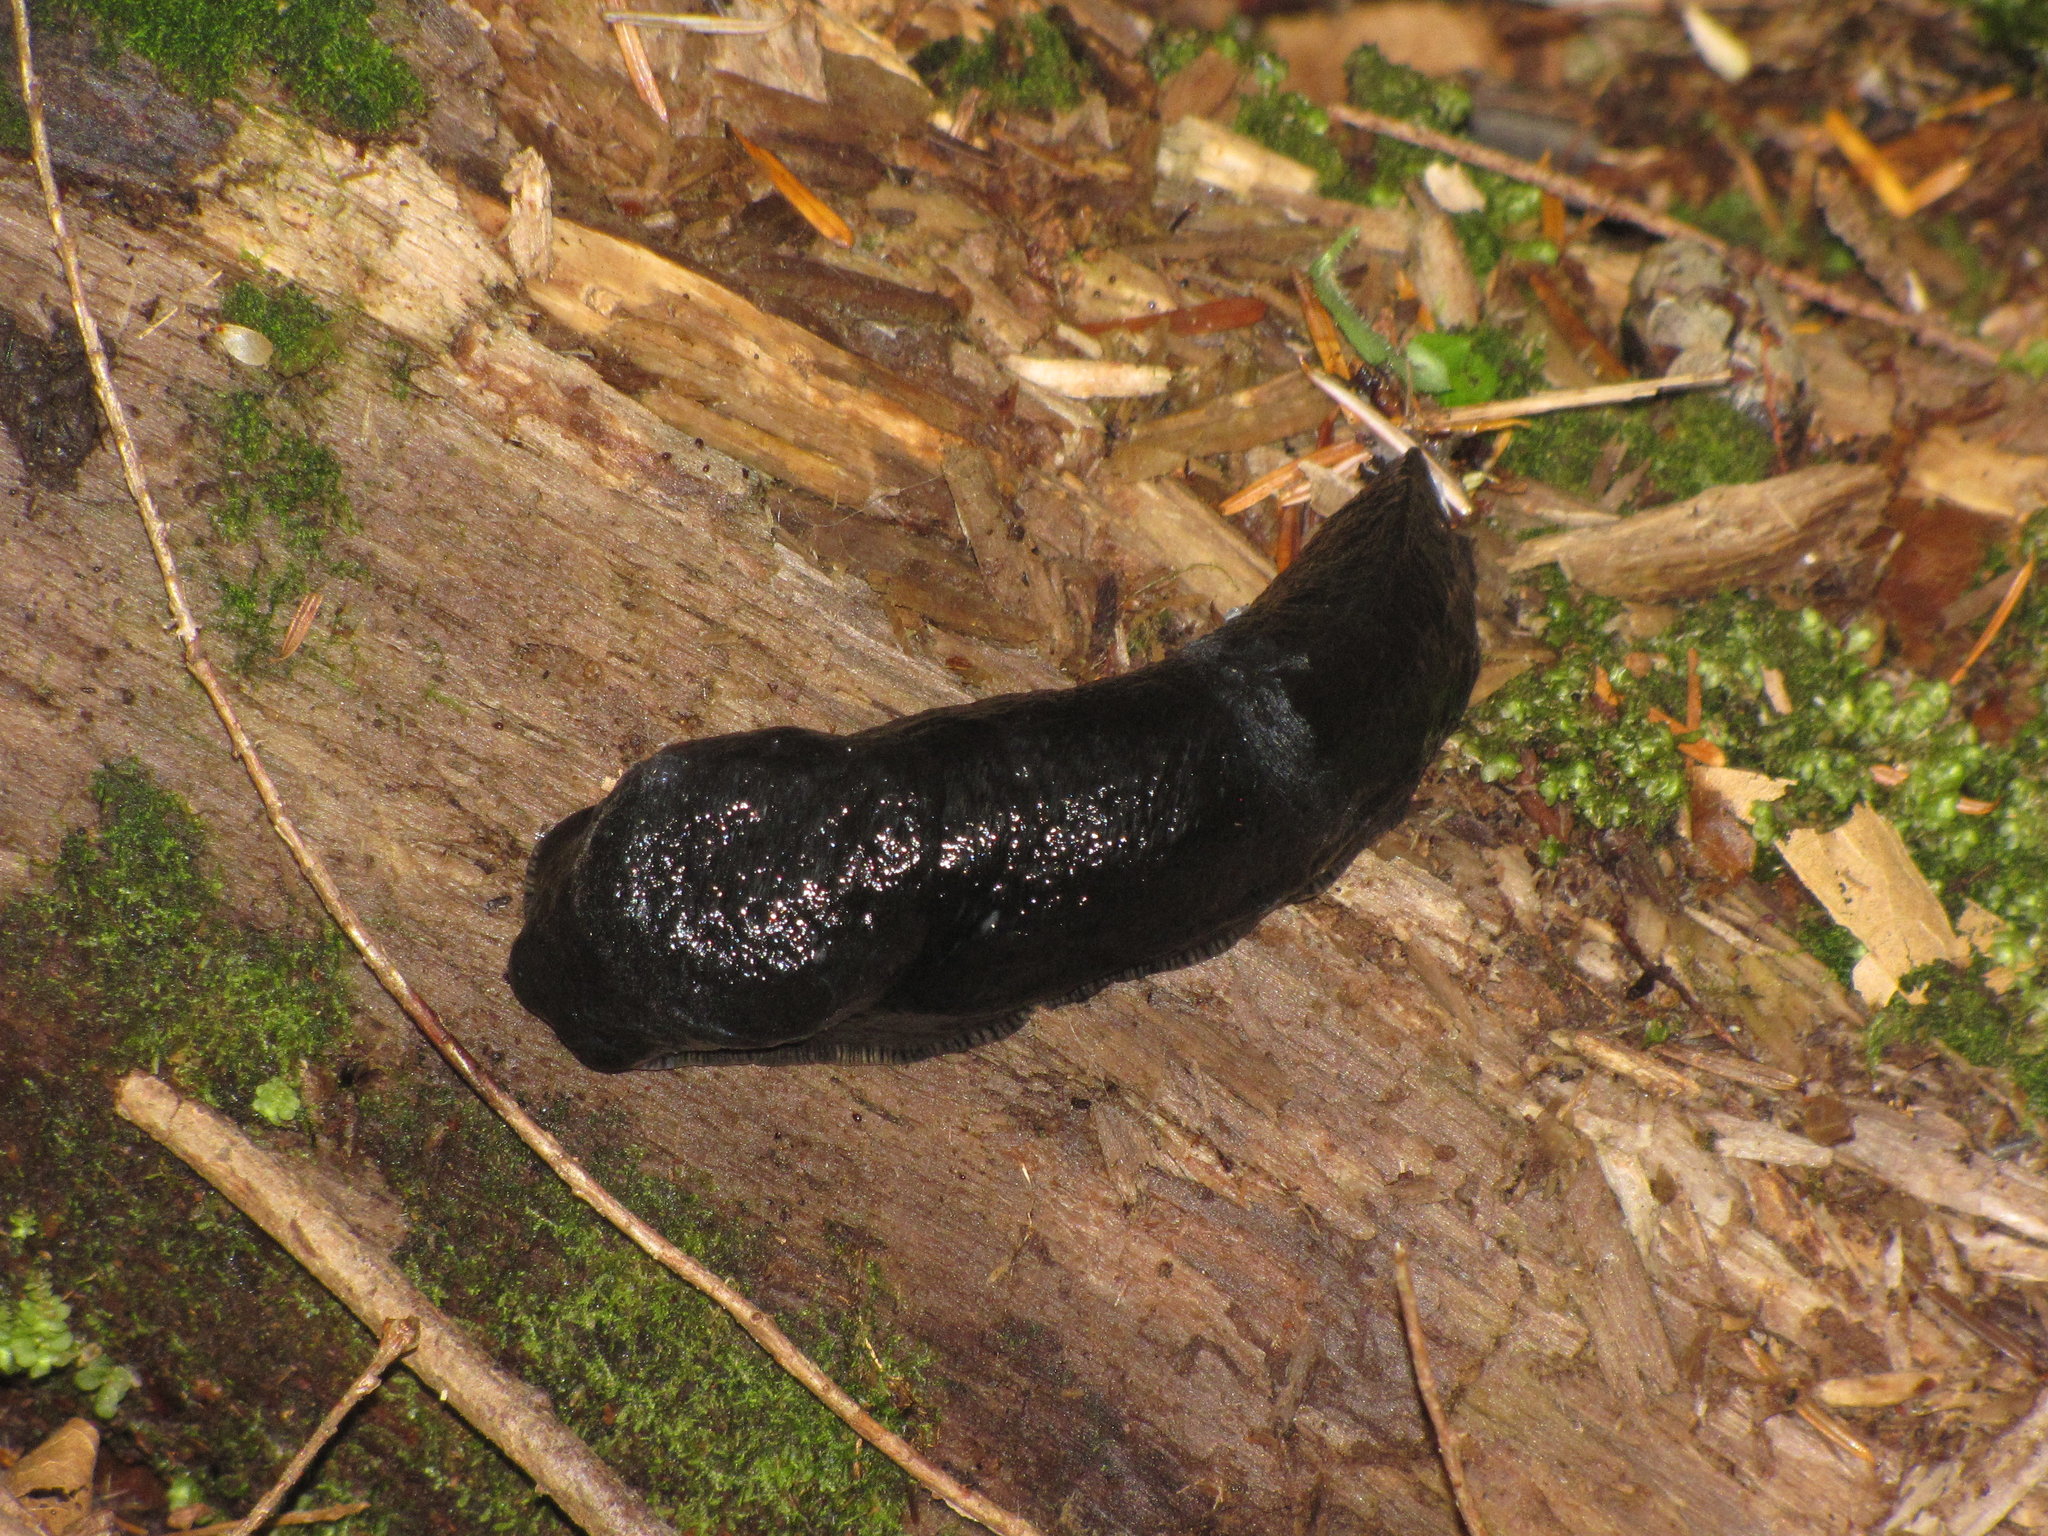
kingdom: Animalia
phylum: Mollusca
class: Gastropoda
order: Stylommatophora
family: Ariolimacidae
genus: Ariolimax
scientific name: Ariolimax columbianus
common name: Pacific banana slug
